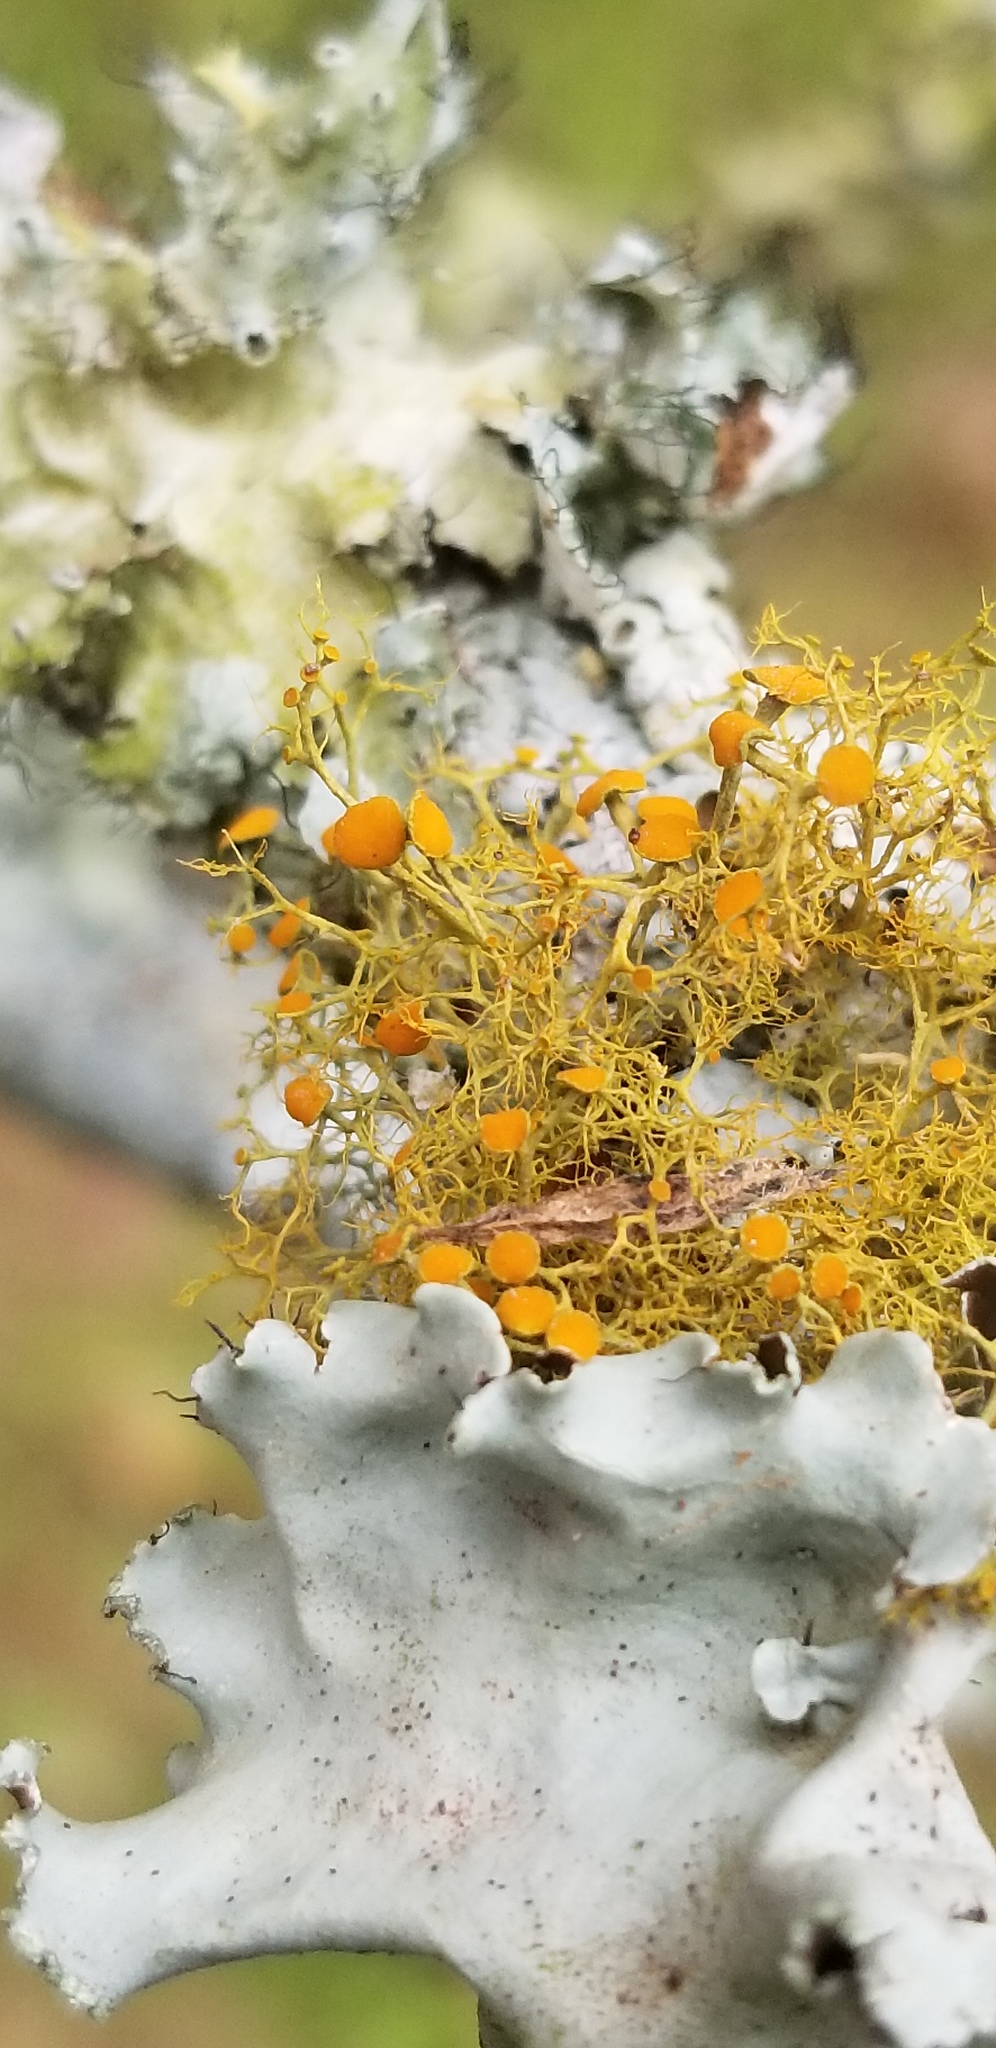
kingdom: Fungi
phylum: Ascomycota
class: Lecanoromycetes
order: Teloschistales
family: Teloschistaceae
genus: Teloschistes
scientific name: Teloschistes exilis
